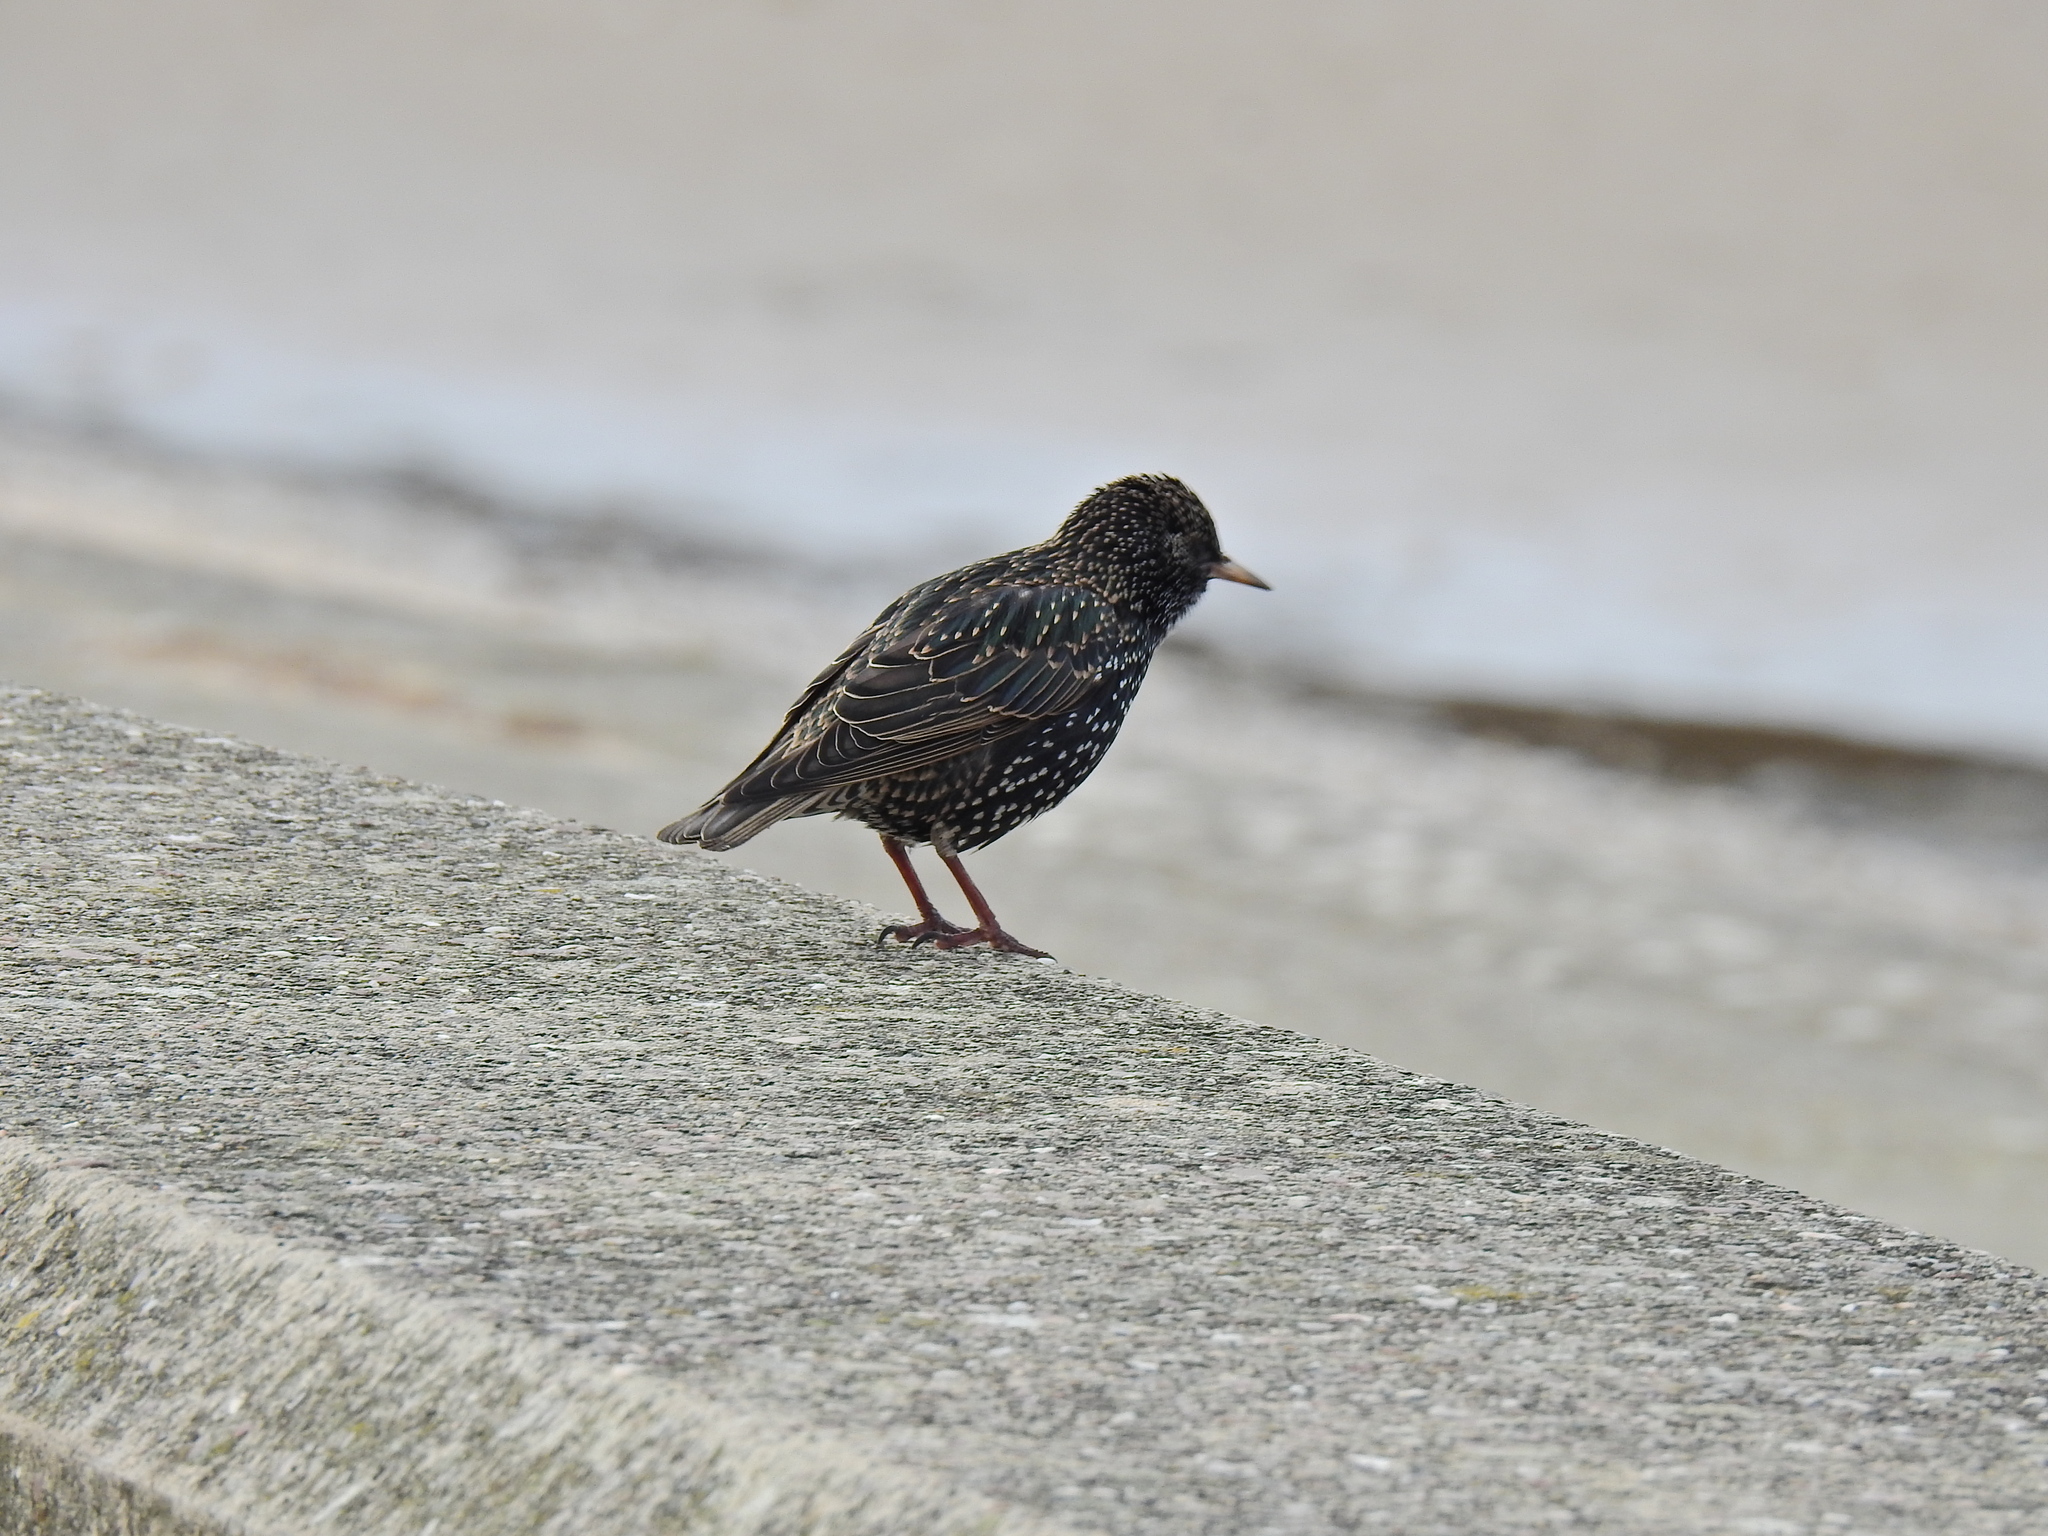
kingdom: Animalia
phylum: Chordata
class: Aves
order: Passeriformes
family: Sturnidae
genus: Sturnus
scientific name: Sturnus vulgaris
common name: Common starling
